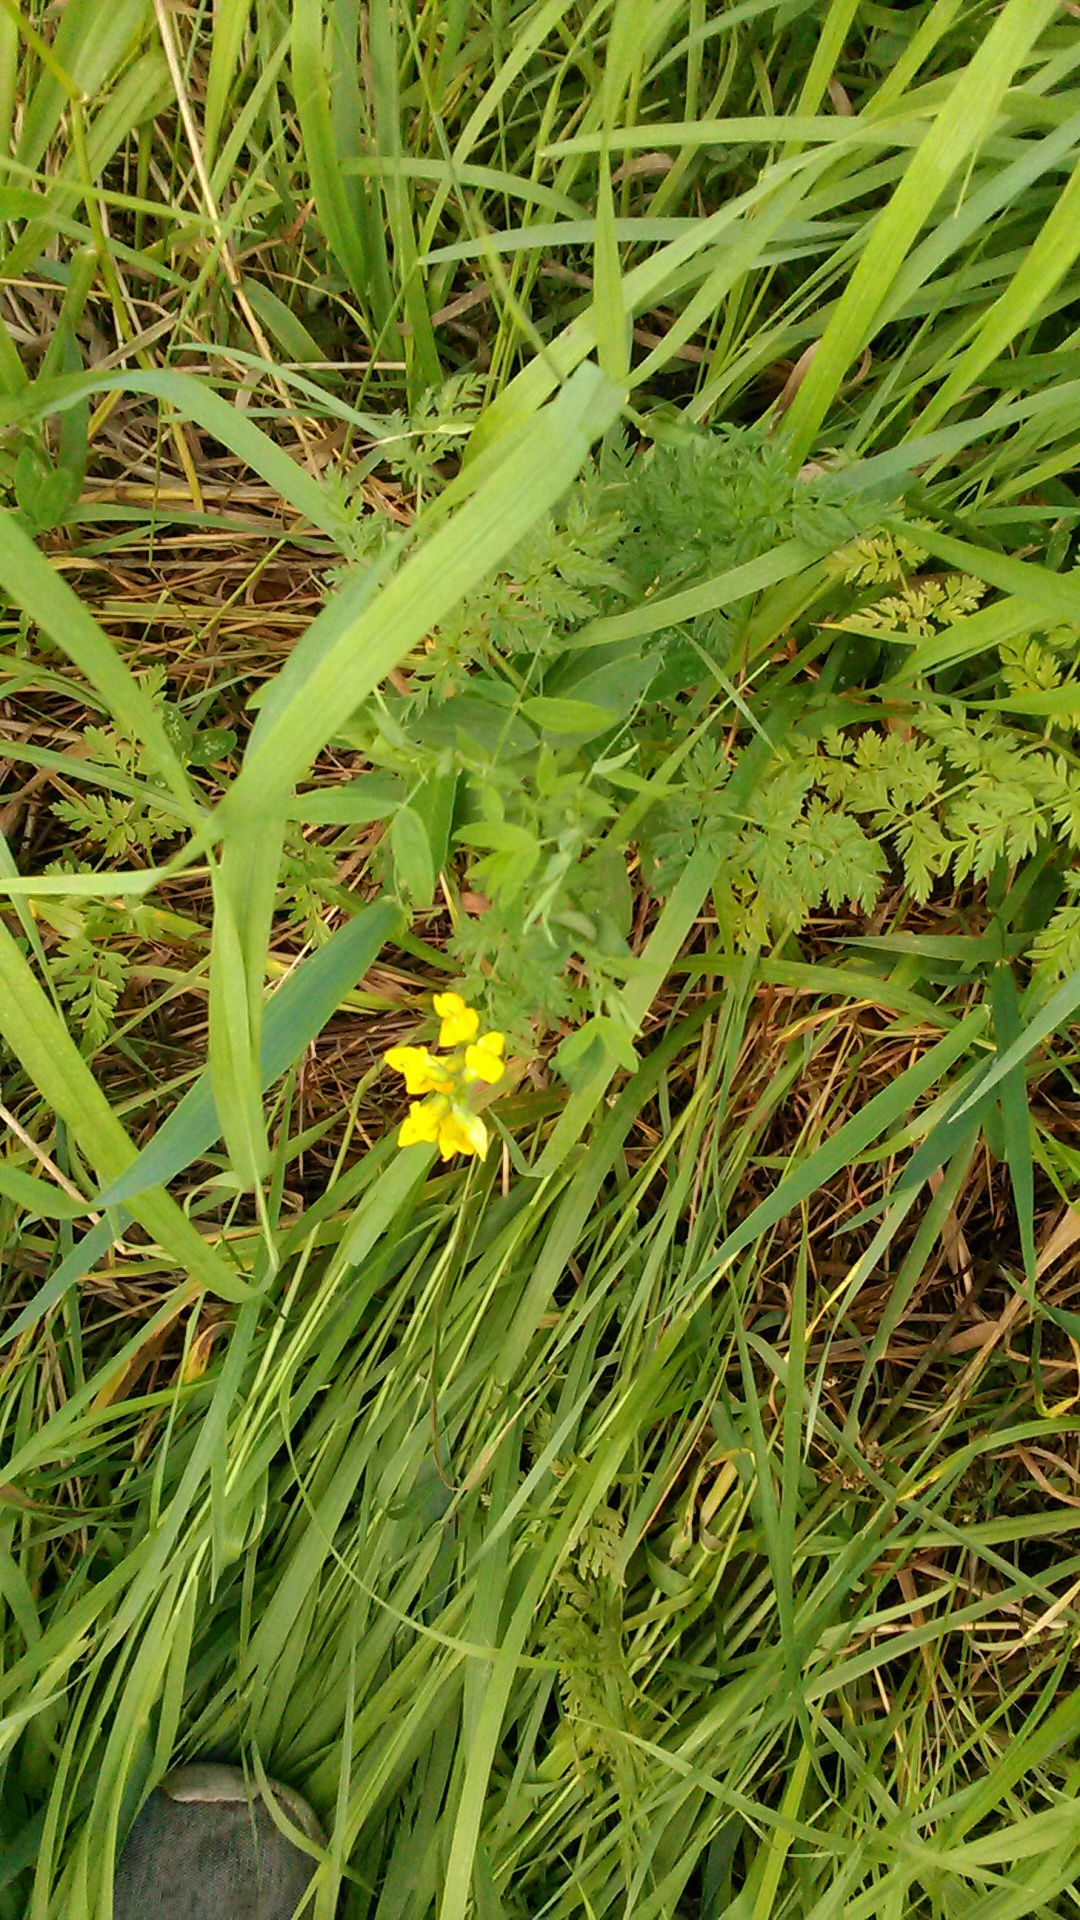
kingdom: Plantae
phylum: Tracheophyta
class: Magnoliopsida
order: Fabales
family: Fabaceae
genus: Lathyrus
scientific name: Lathyrus pratensis
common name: Meadow vetchling
